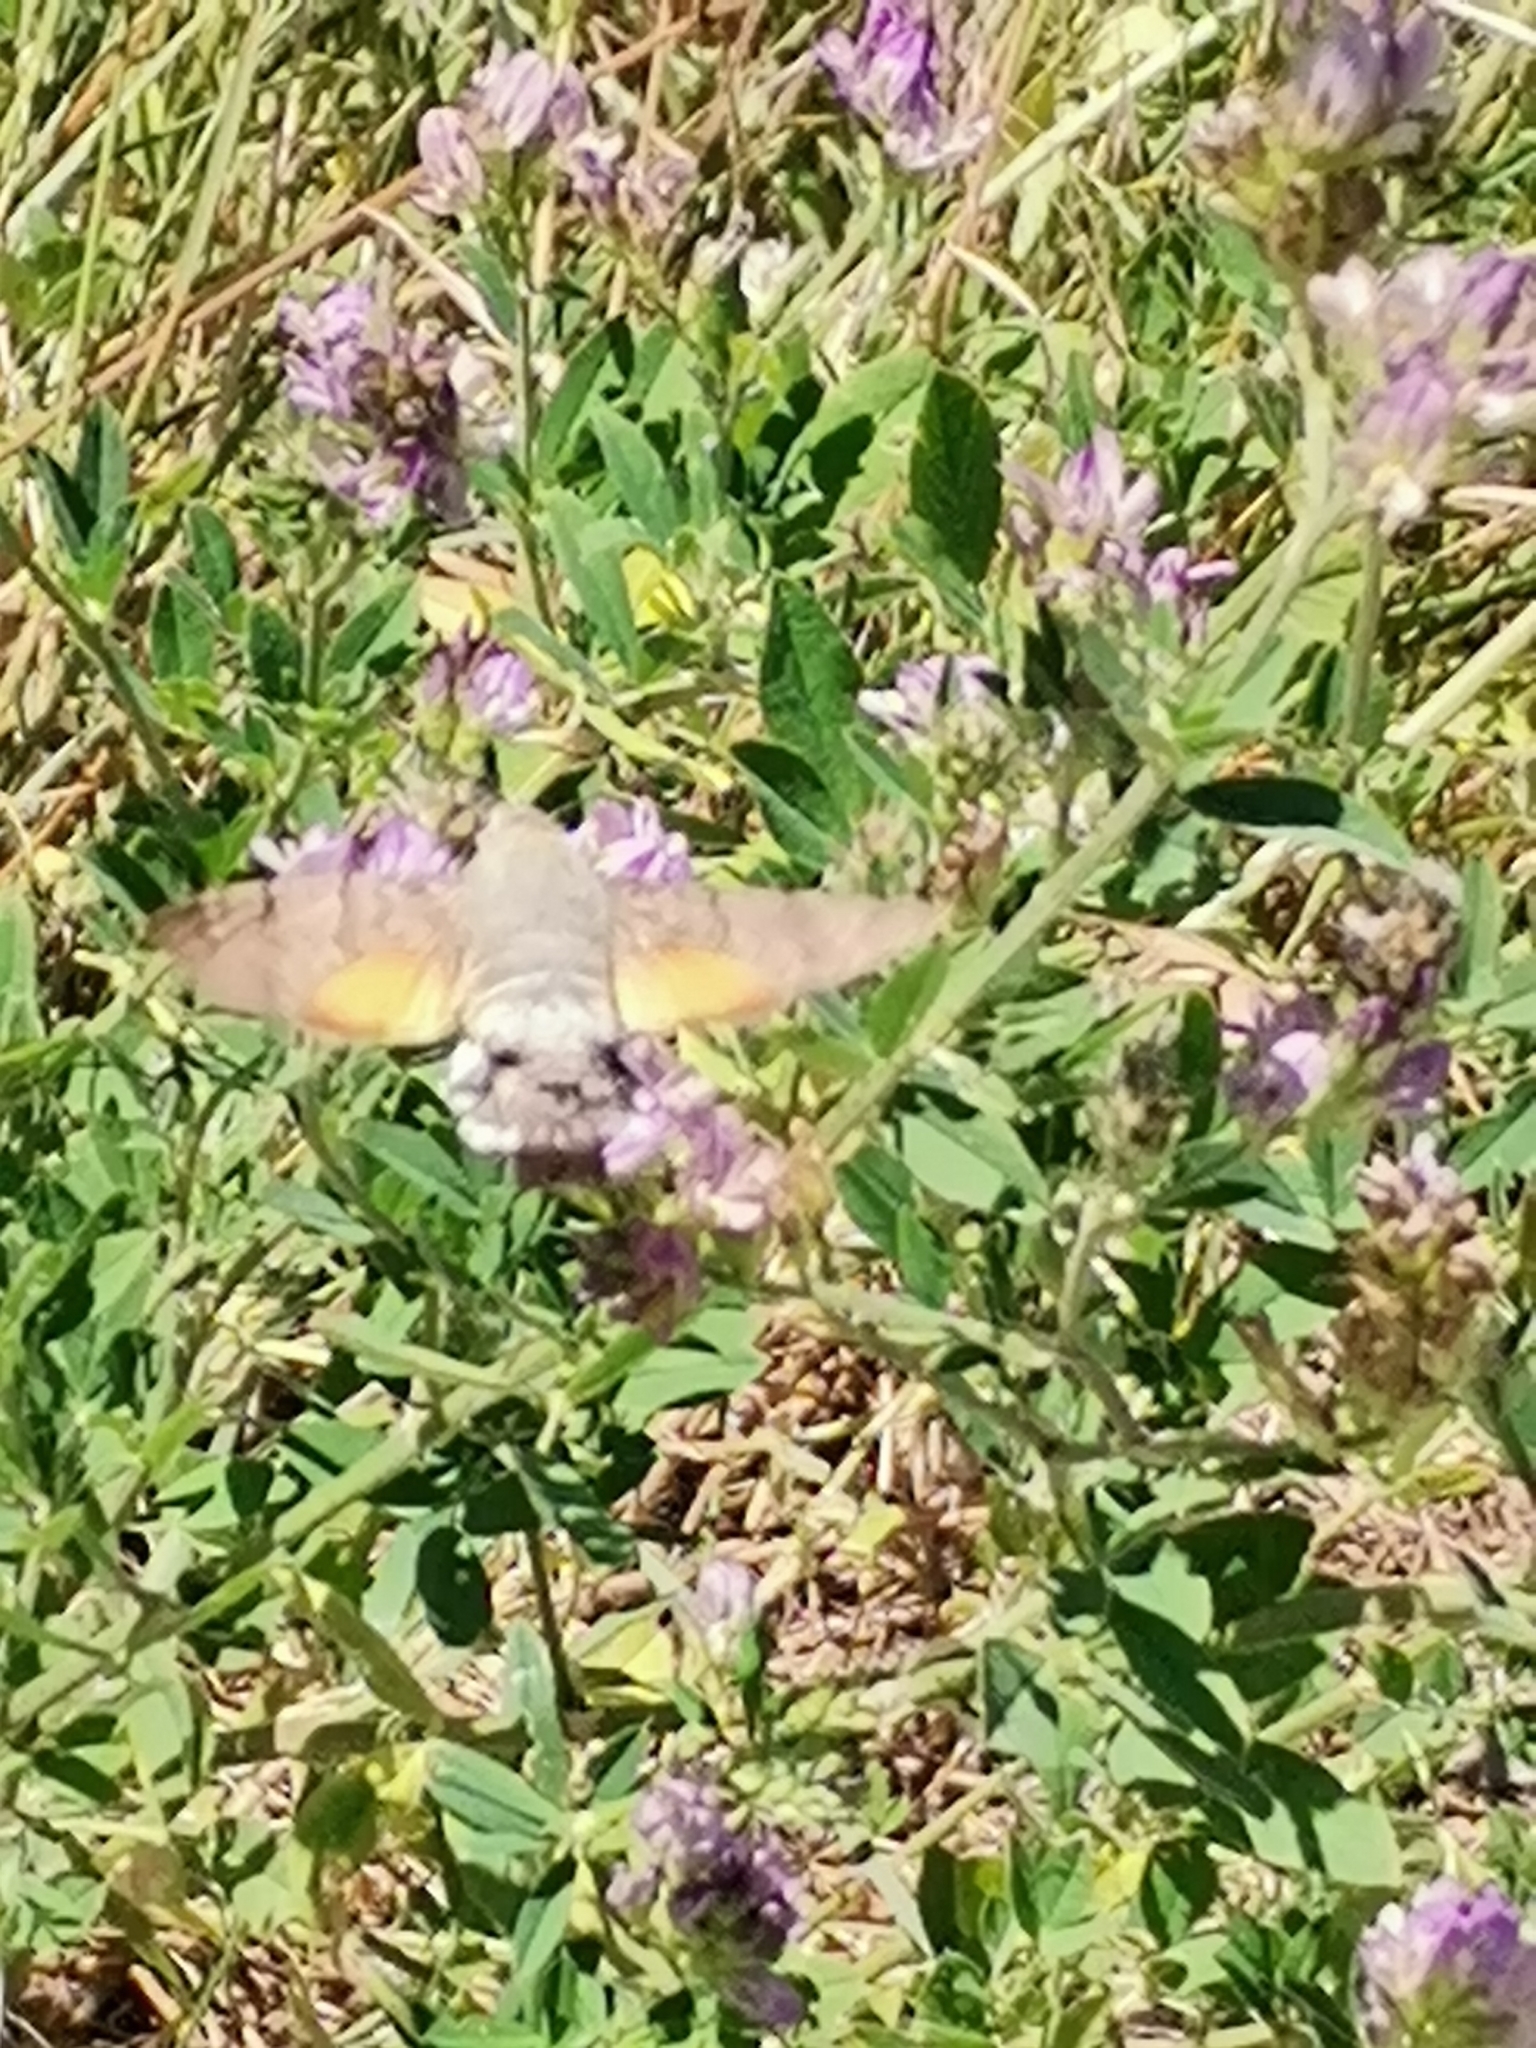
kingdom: Animalia
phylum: Arthropoda
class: Insecta
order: Lepidoptera
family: Sphingidae
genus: Macroglossum
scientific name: Macroglossum stellatarum
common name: Humming-bird hawk-moth
